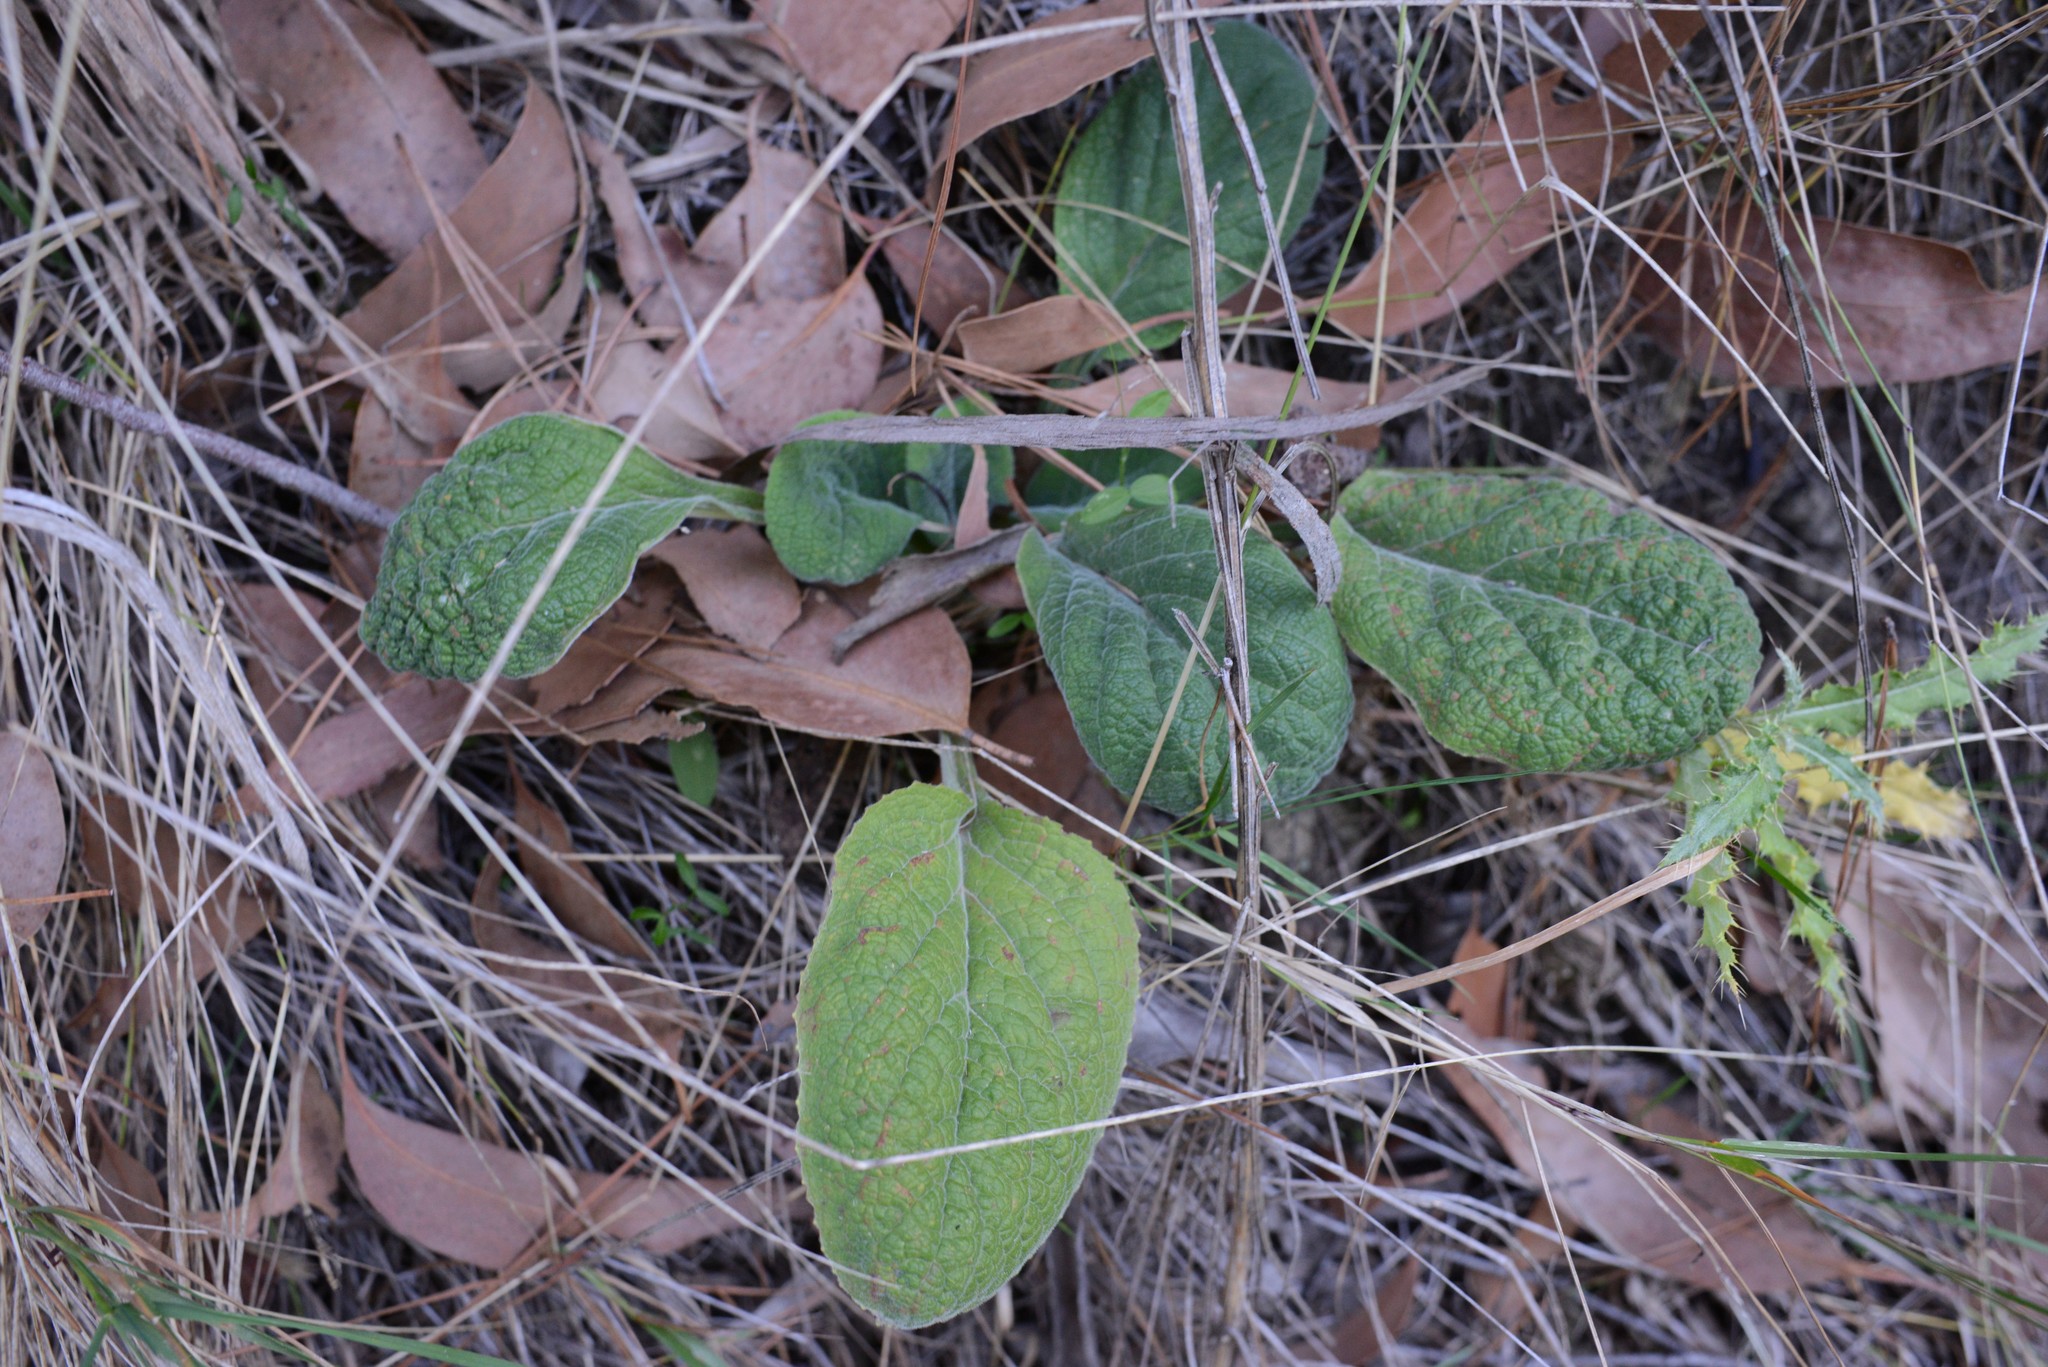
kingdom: Plantae
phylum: Tracheophyta
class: Magnoliopsida
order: Lamiales
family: Plantaginaceae
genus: Digitalis
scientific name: Digitalis purpurea
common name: Foxglove
